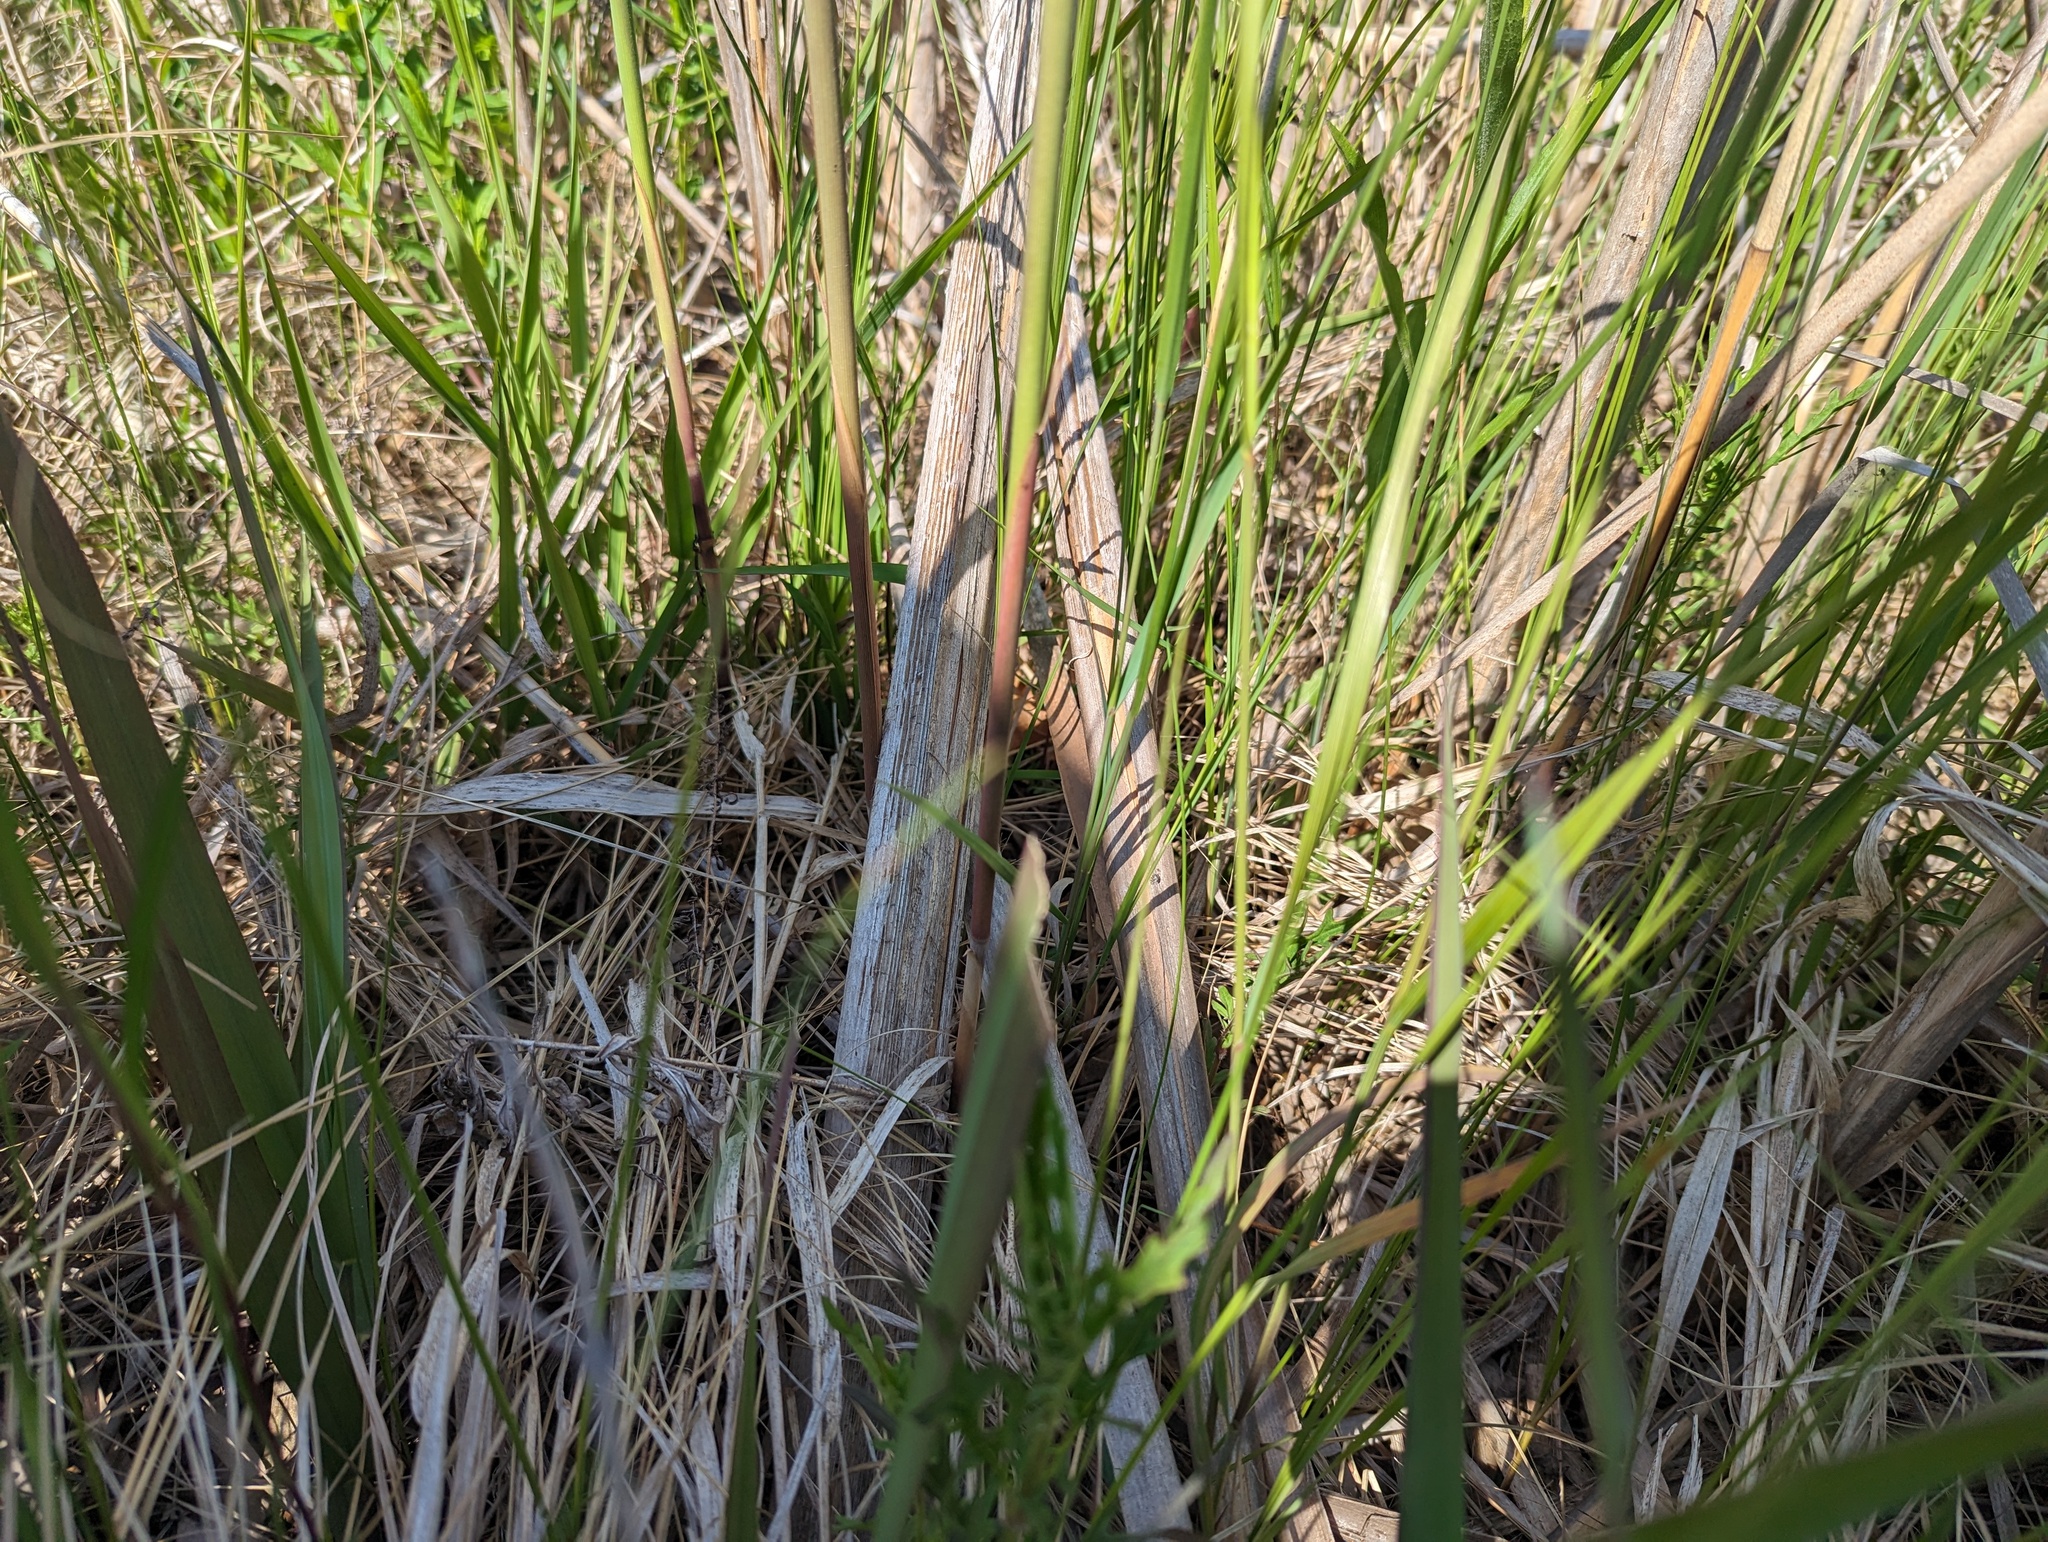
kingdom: Plantae
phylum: Tracheophyta
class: Liliopsida
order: Poales
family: Poaceae
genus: Phragmites
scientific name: Phragmites australis
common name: Common reed
